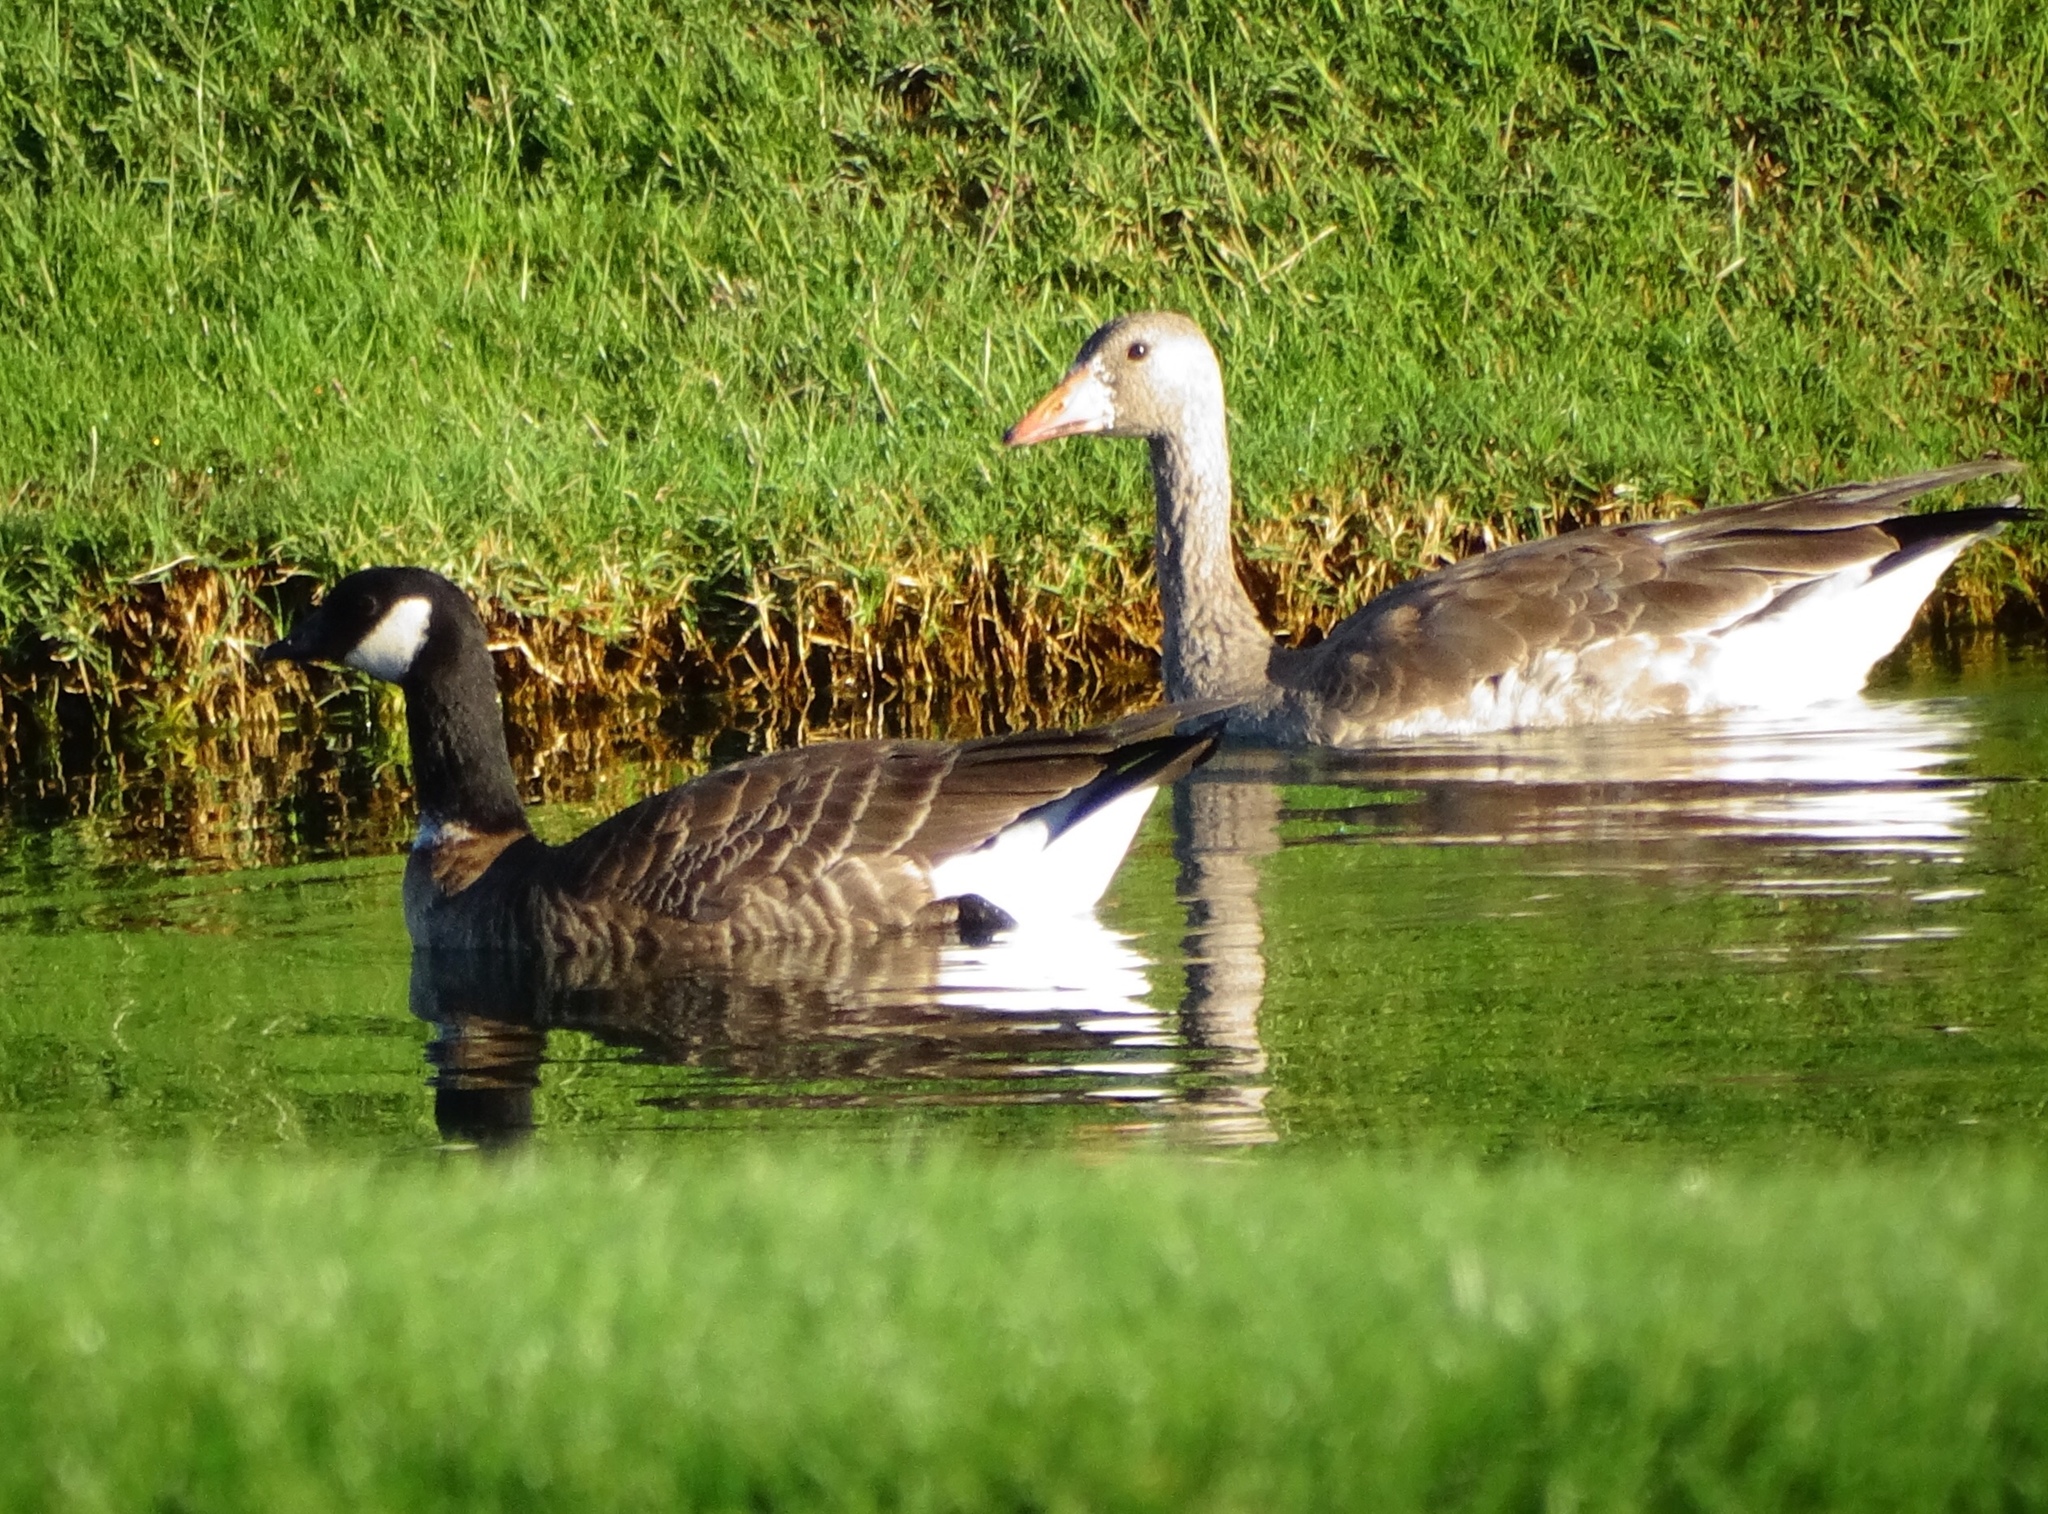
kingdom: Animalia
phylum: Chordata
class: Aves
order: Anseriformes
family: Anatidae
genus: Anser
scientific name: Anser albifrons
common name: Greater white-fronted goose
